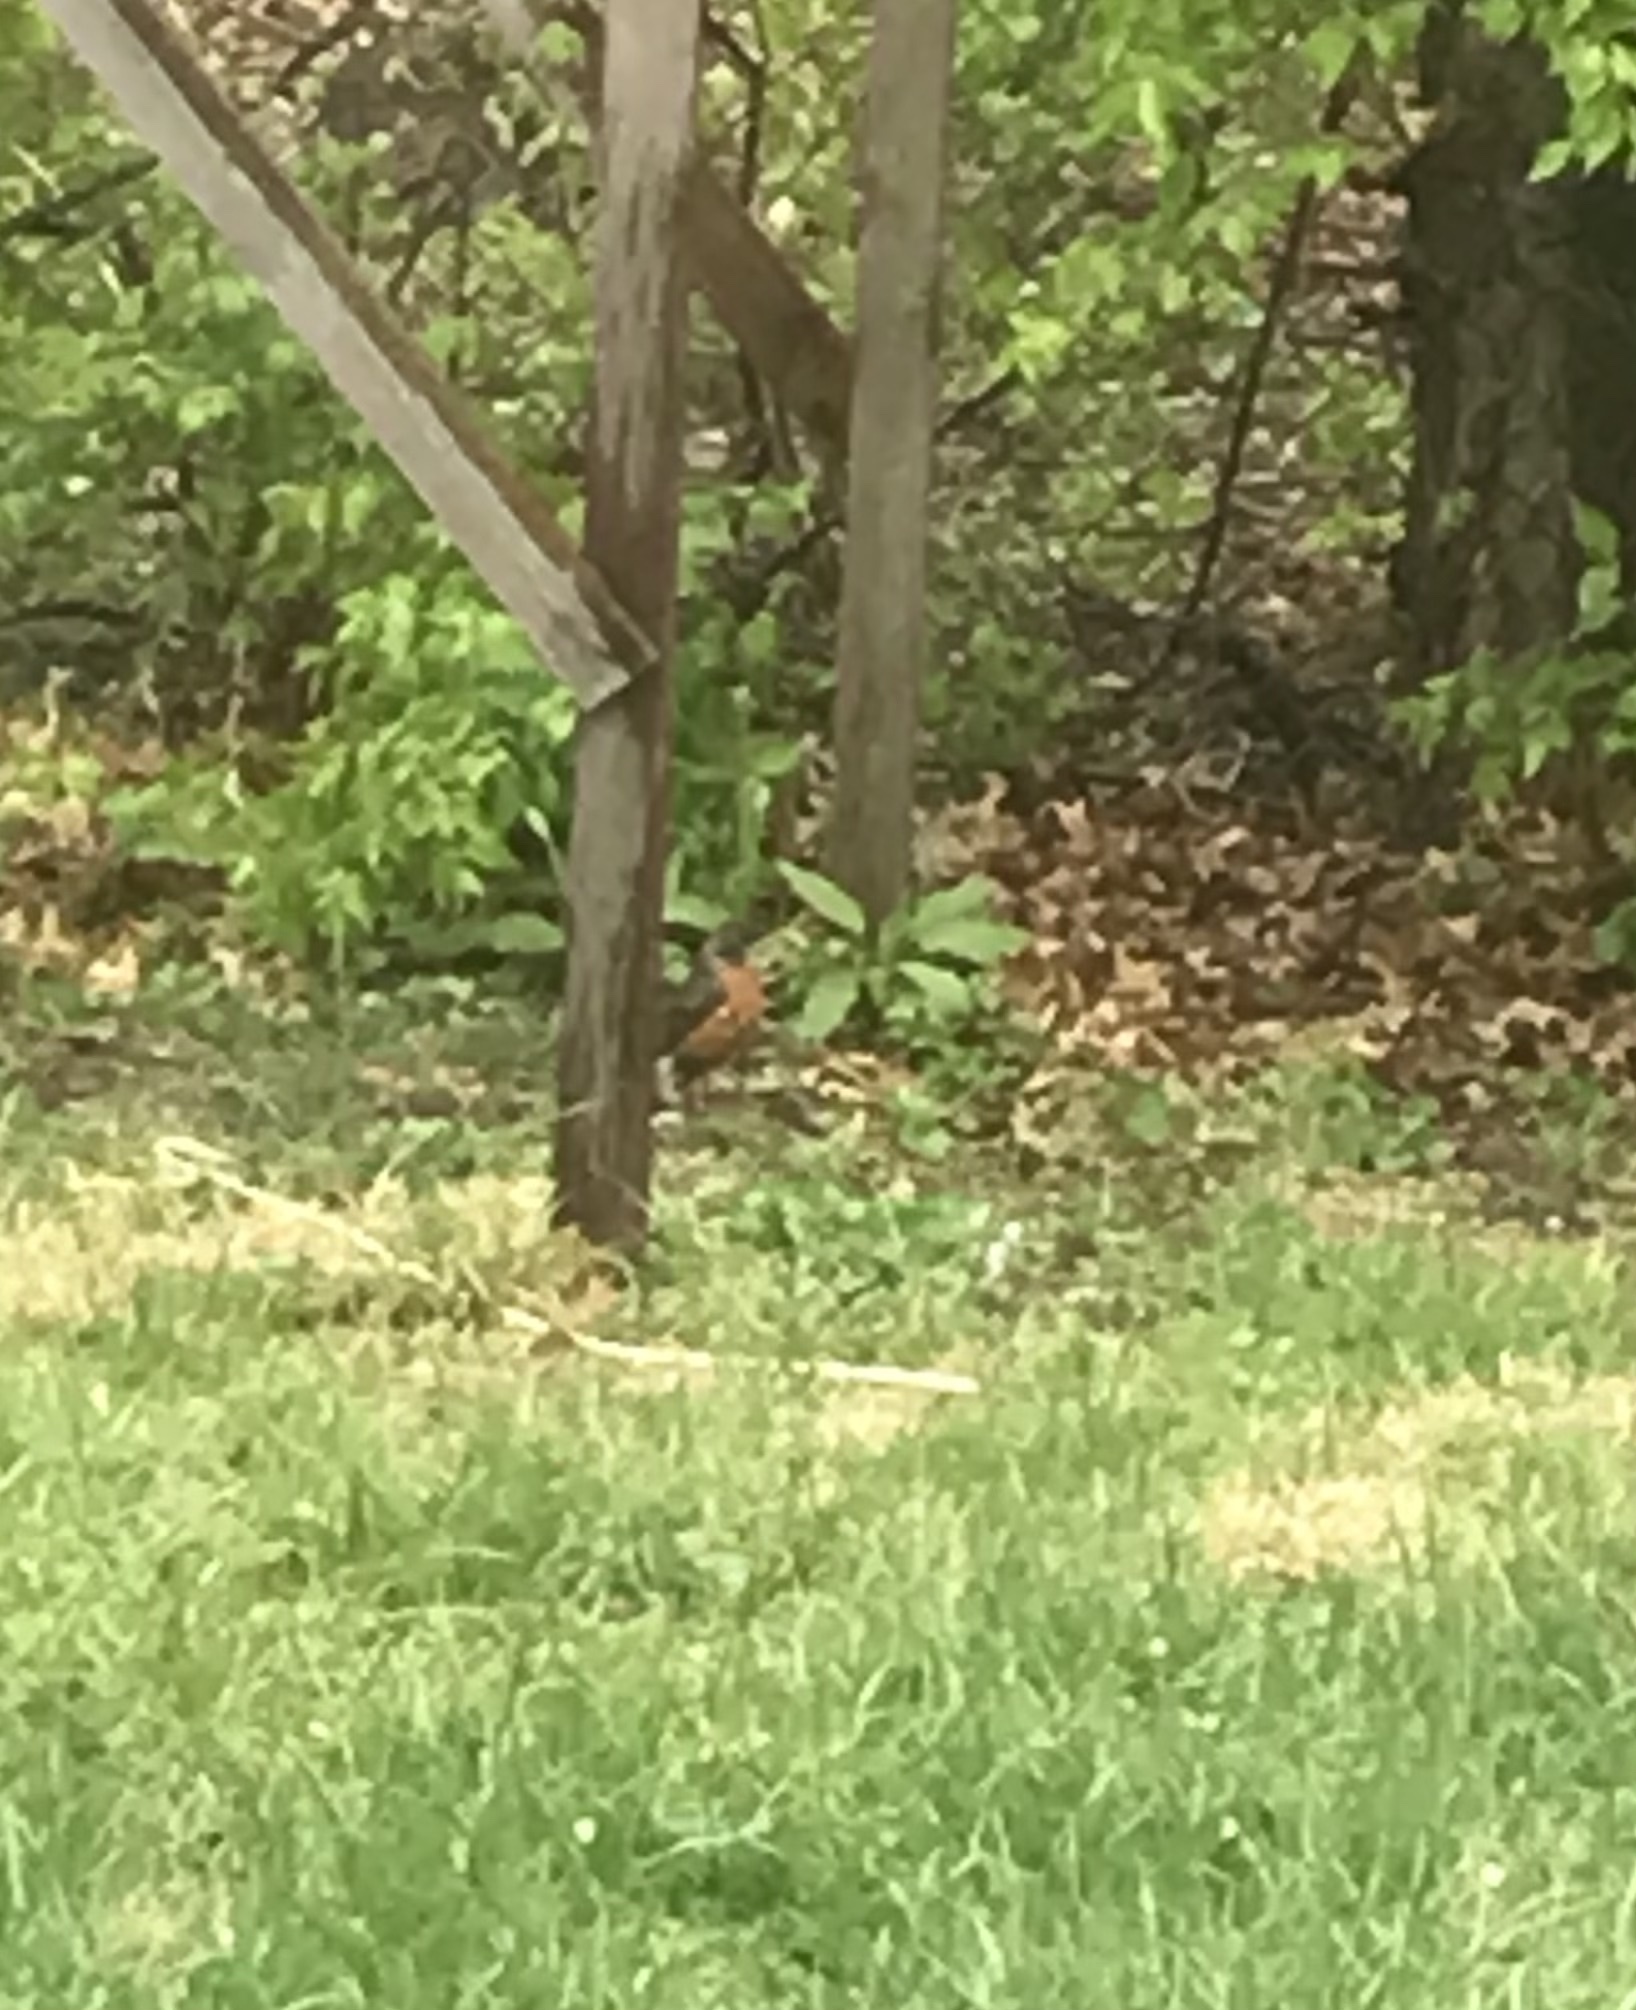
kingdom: Animalia
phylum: Chordata
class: Aves
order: Passeriformes
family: Turdidae
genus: Turdus
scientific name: Turdus migratorius
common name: American robin
